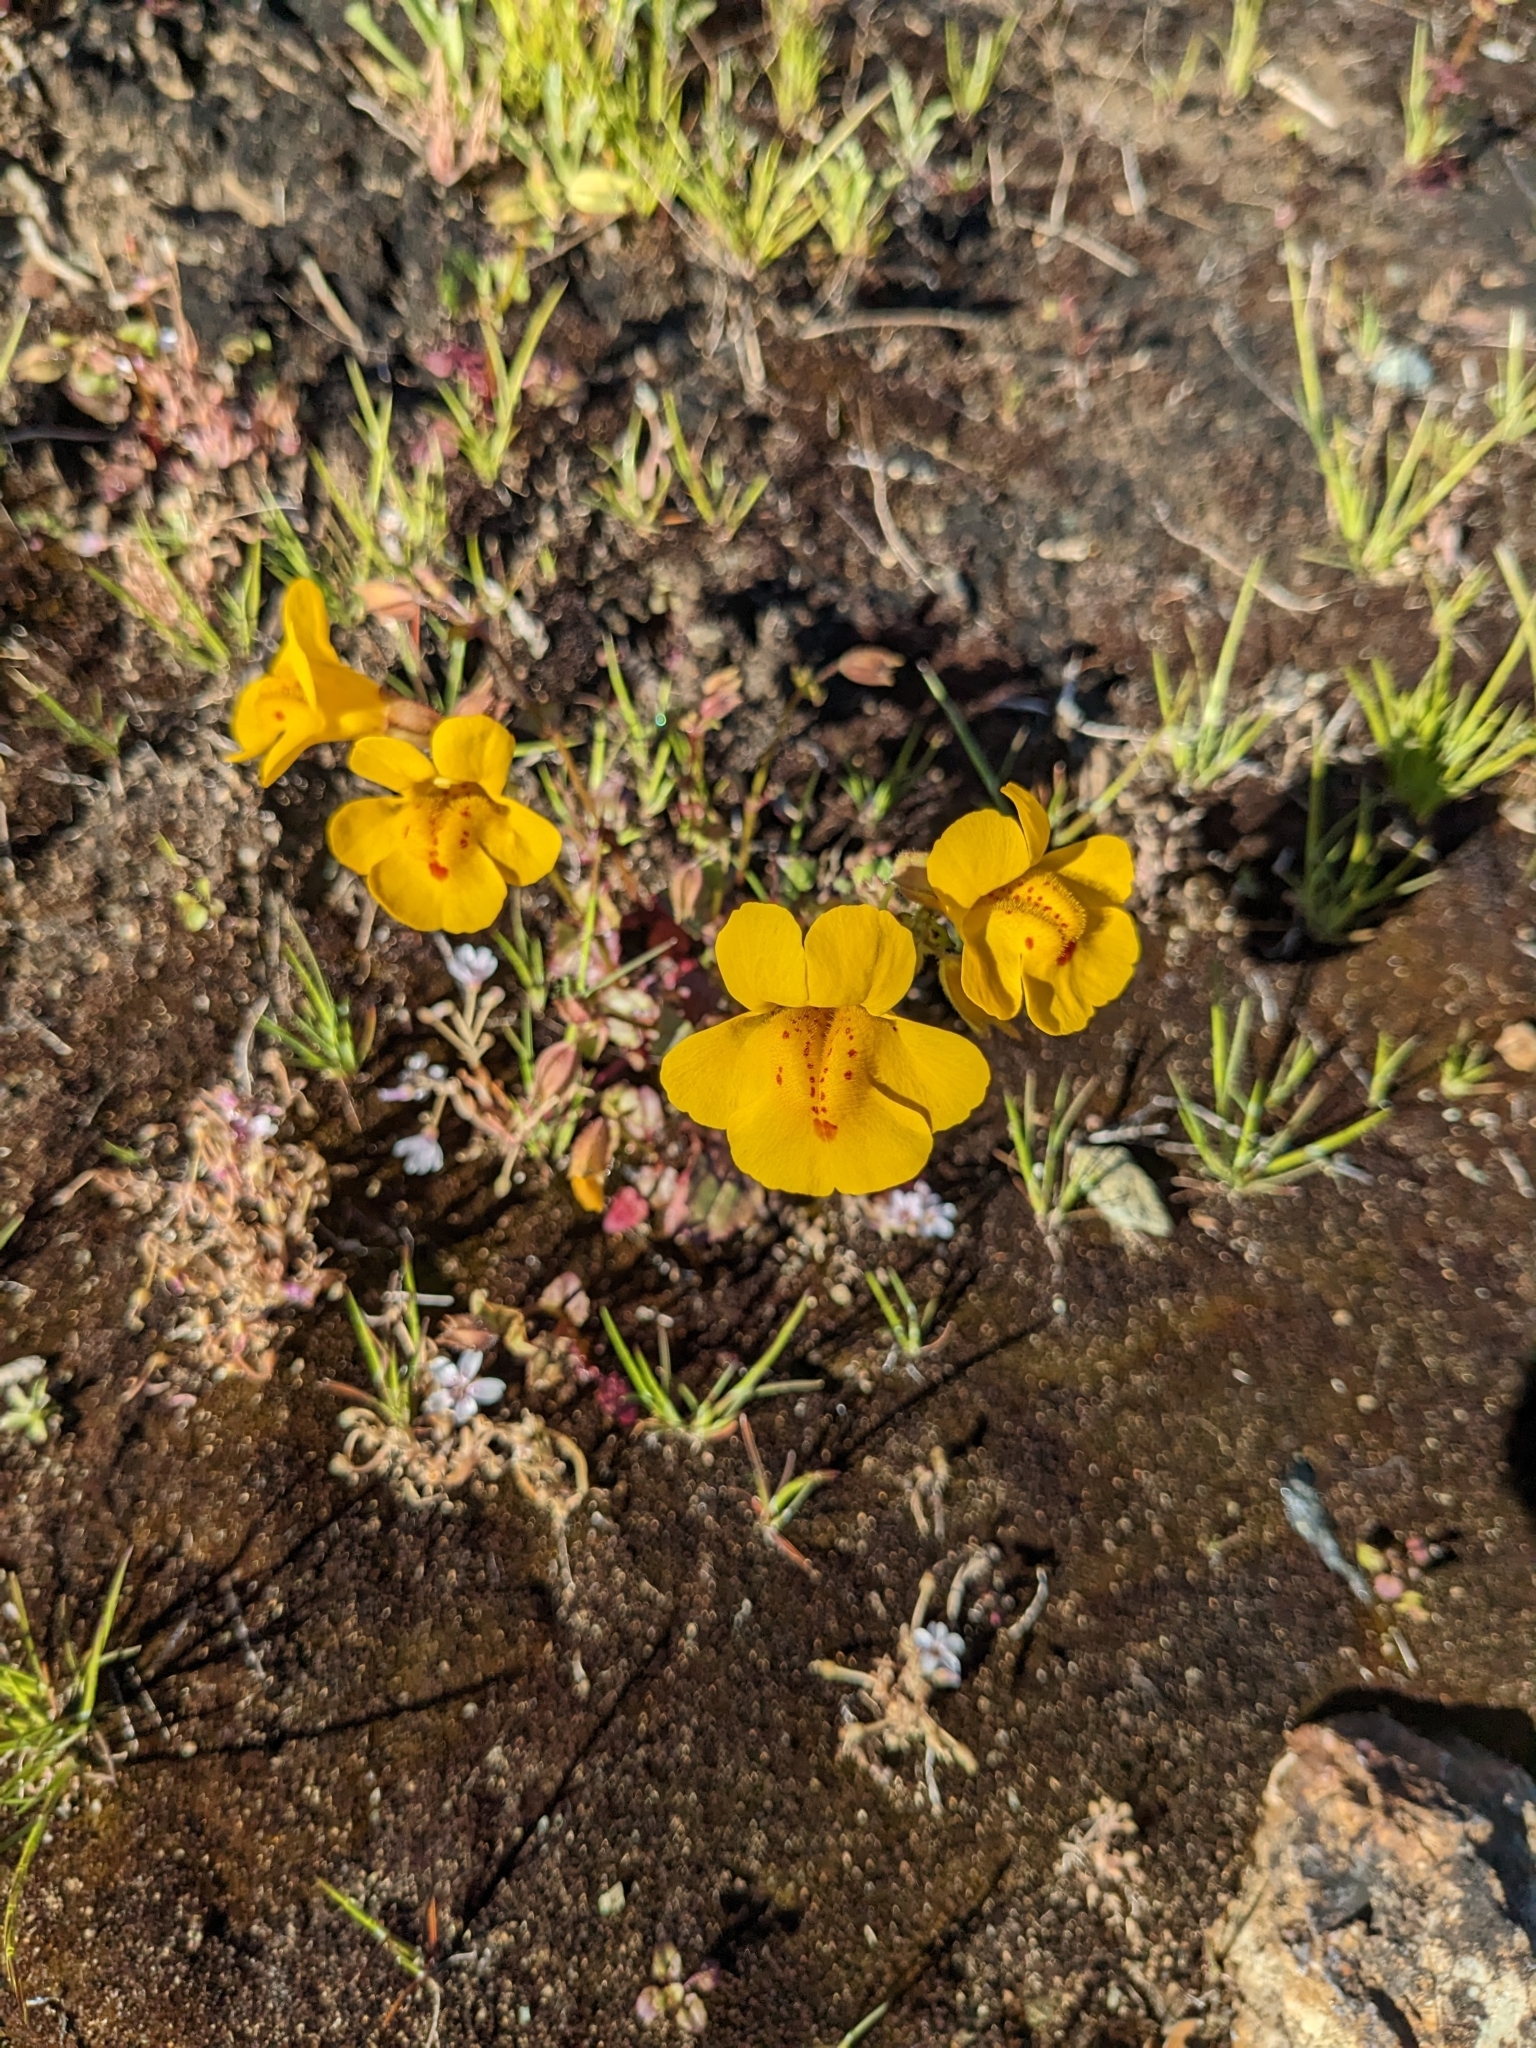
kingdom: Plantae
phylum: Tracheophyta
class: Magnoliopsida
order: Lamiales
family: Phrymaceae
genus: Erythranthe
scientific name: Erythranthe guttata
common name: Monkeyflower
